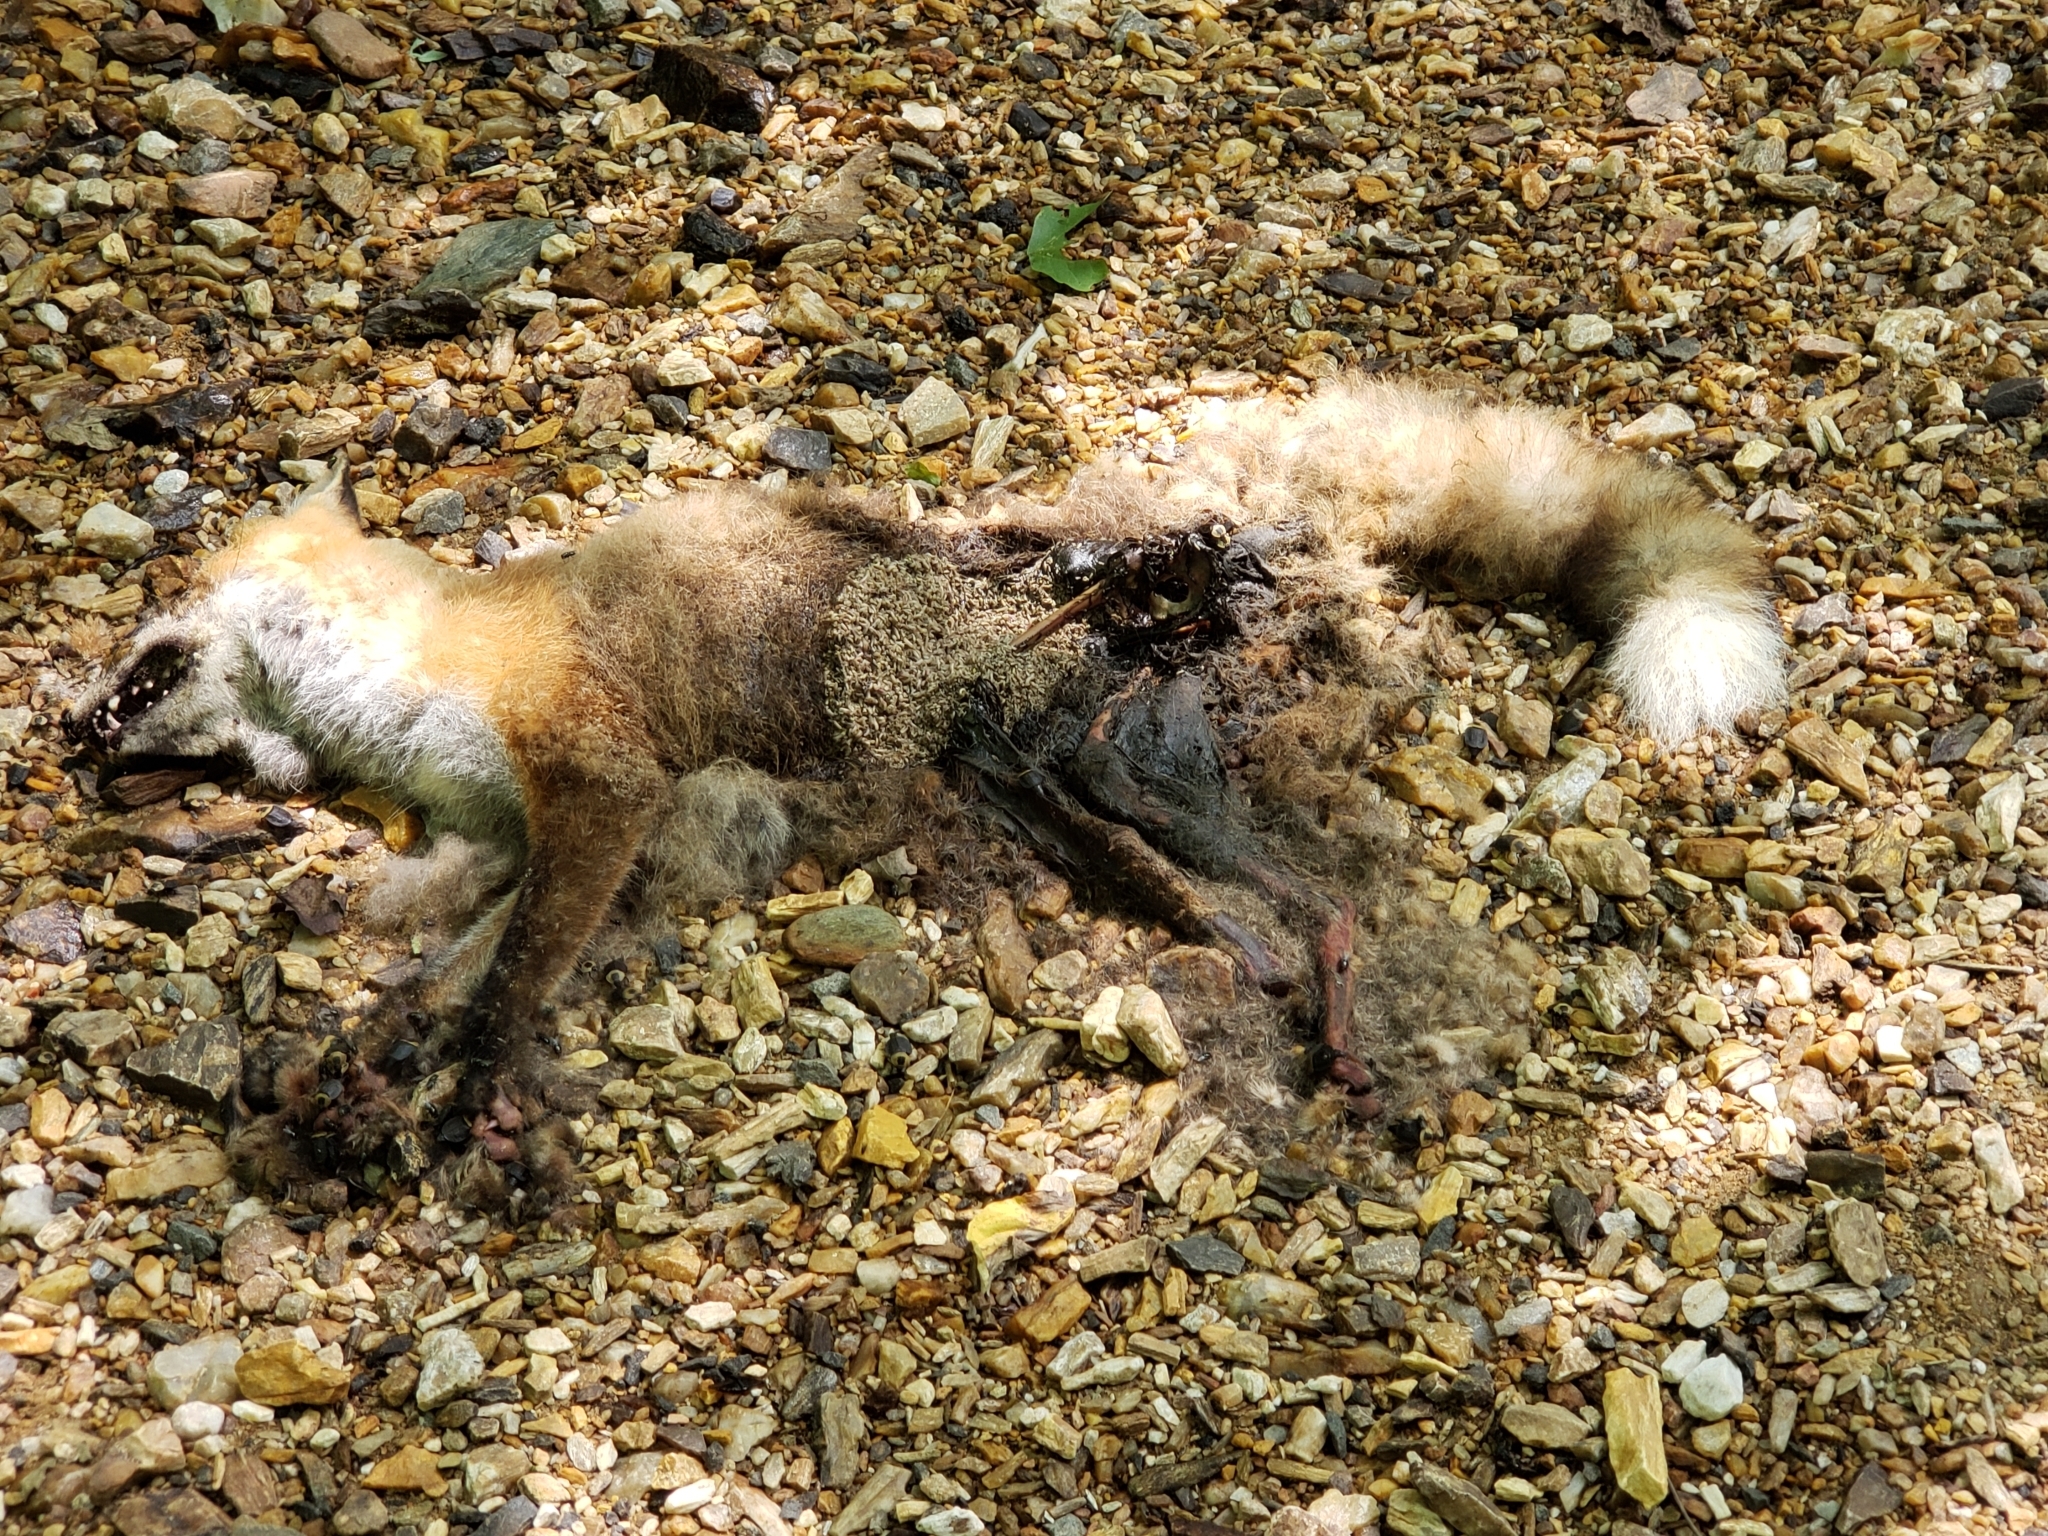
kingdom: Animalia
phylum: Chordata
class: Mammalia
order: Carnivora
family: Canidae
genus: Vulpes
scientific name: Vulpes vulpes
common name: Red fox
